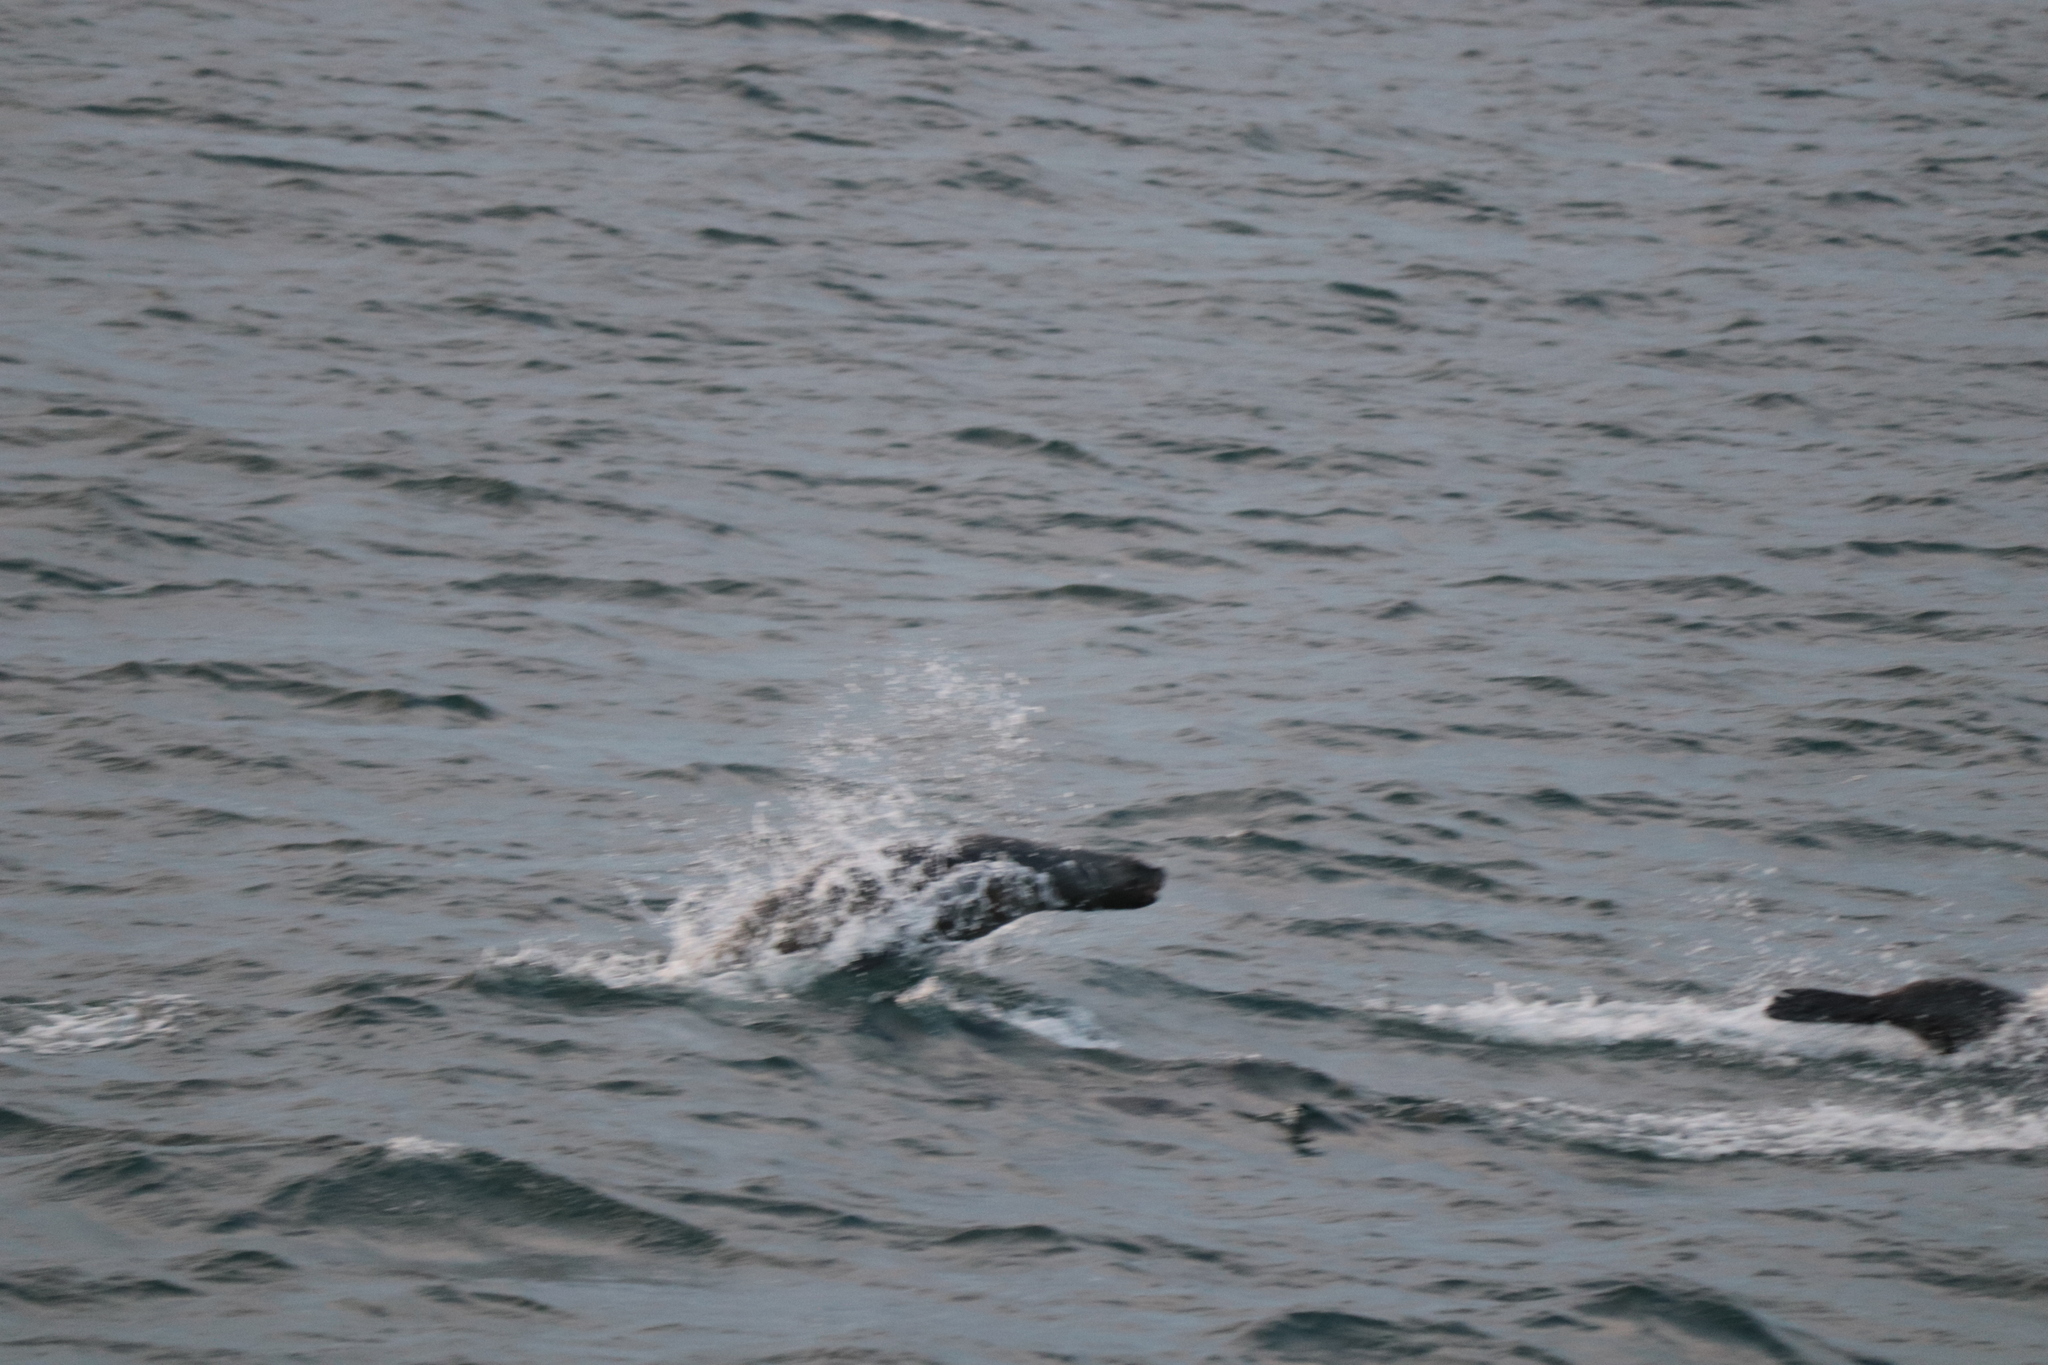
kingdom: Animalia
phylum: Chordata
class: Mammalia
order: Carnivora
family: Otariidae
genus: Arctocephalus
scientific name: Arctocephalus australis
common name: South american fur seal
